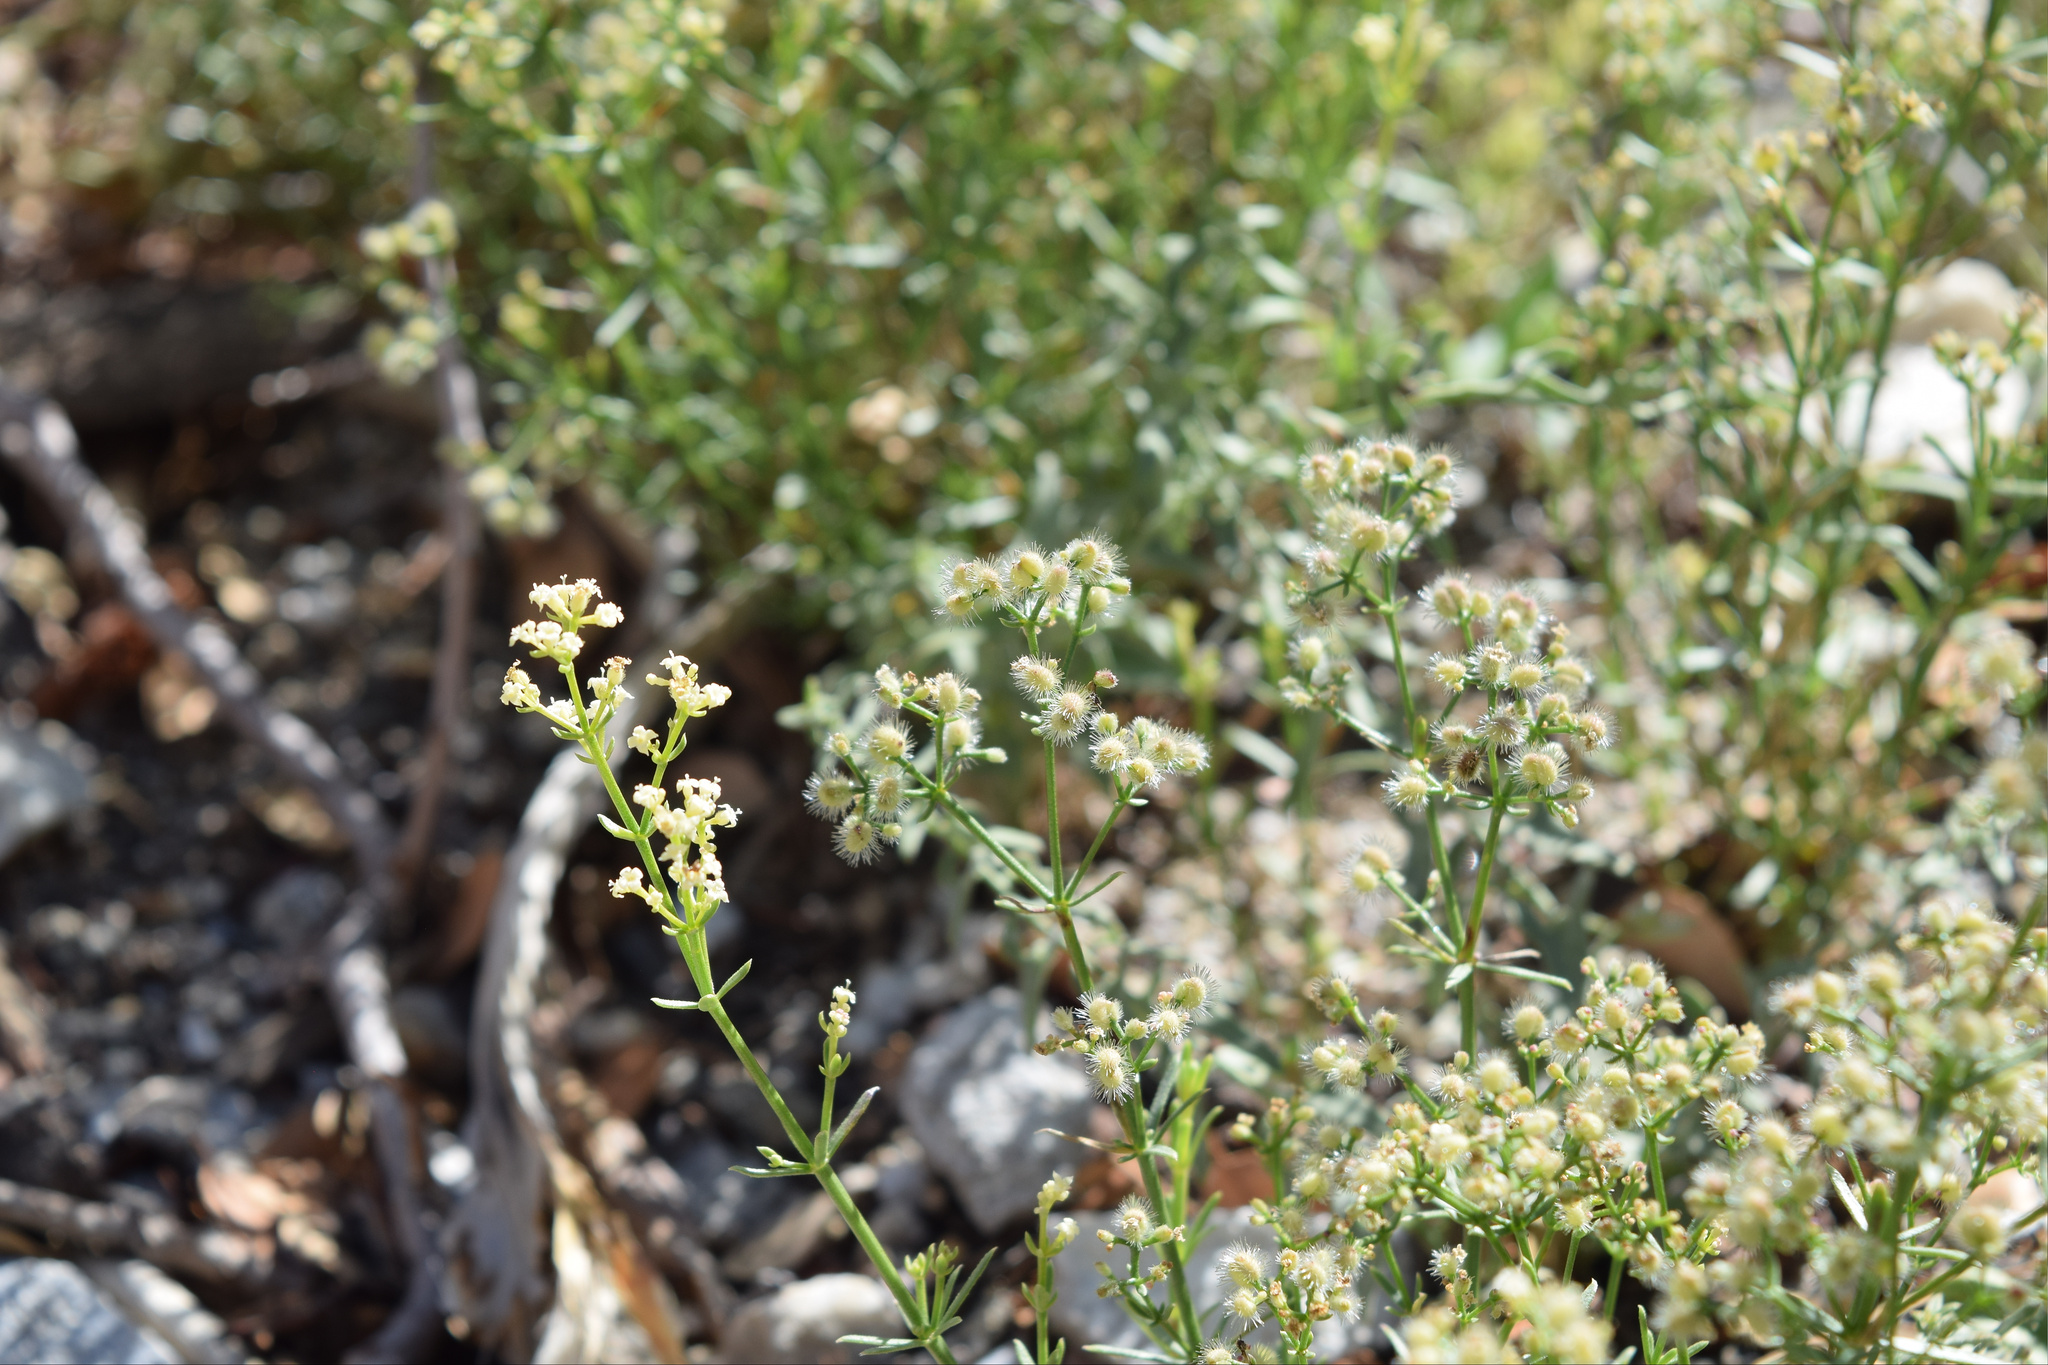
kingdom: Plantae
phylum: Tracheophyta
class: Magnoliopsida
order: Gentianales
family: Rubiaceae
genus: Galium
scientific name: Galium angustifolium
